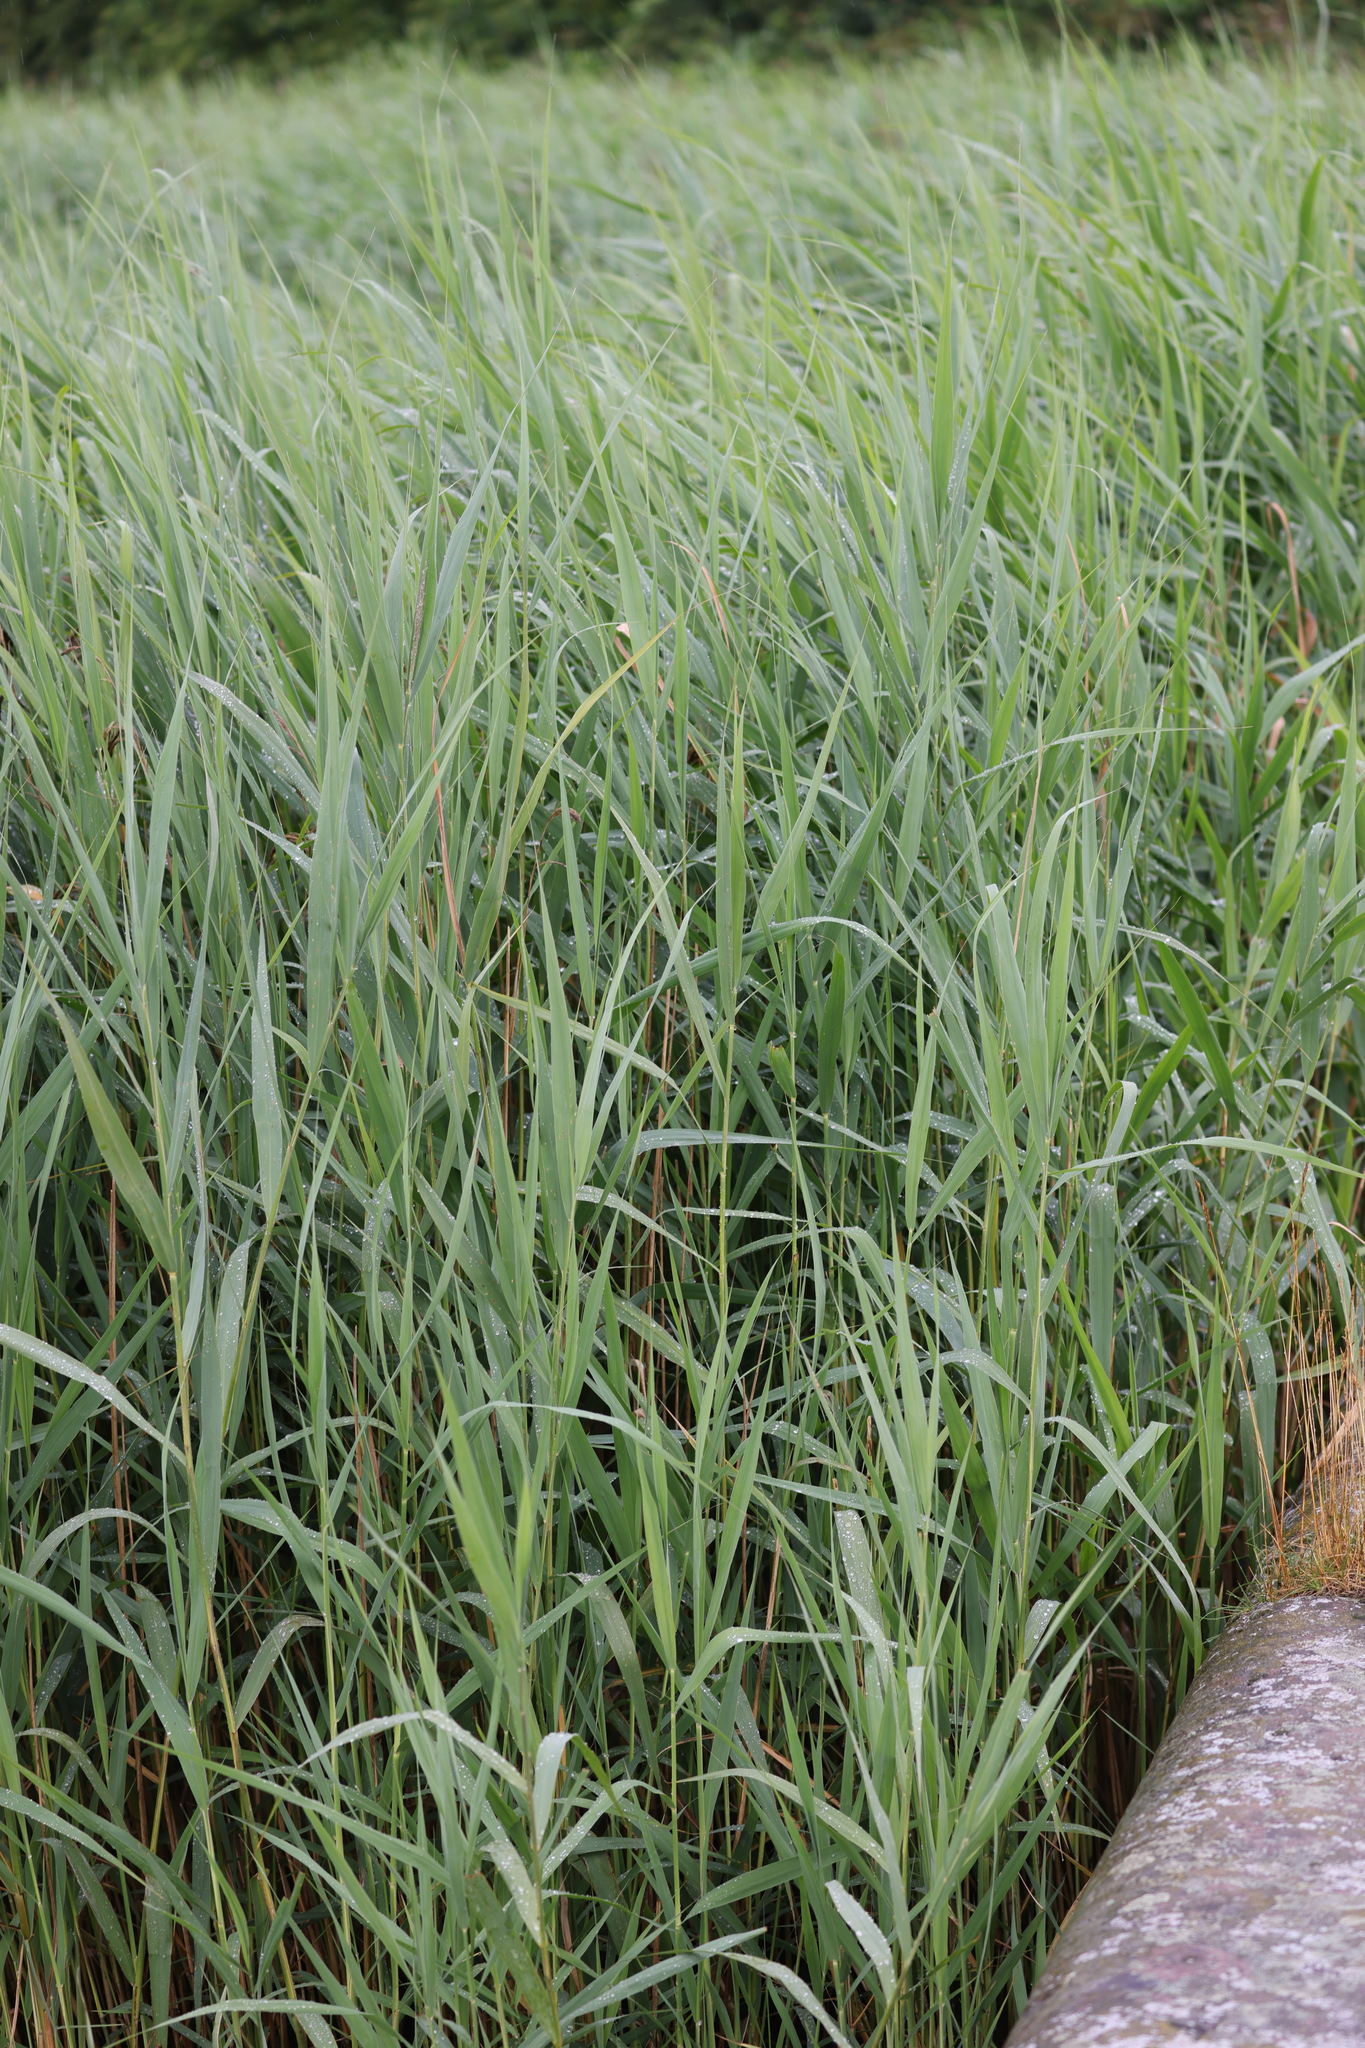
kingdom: Plantae
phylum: Tracheophyta
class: Liliopsida
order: Poales
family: Poaceae
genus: Phragmites
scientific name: Phragmites australis
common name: Common reed
